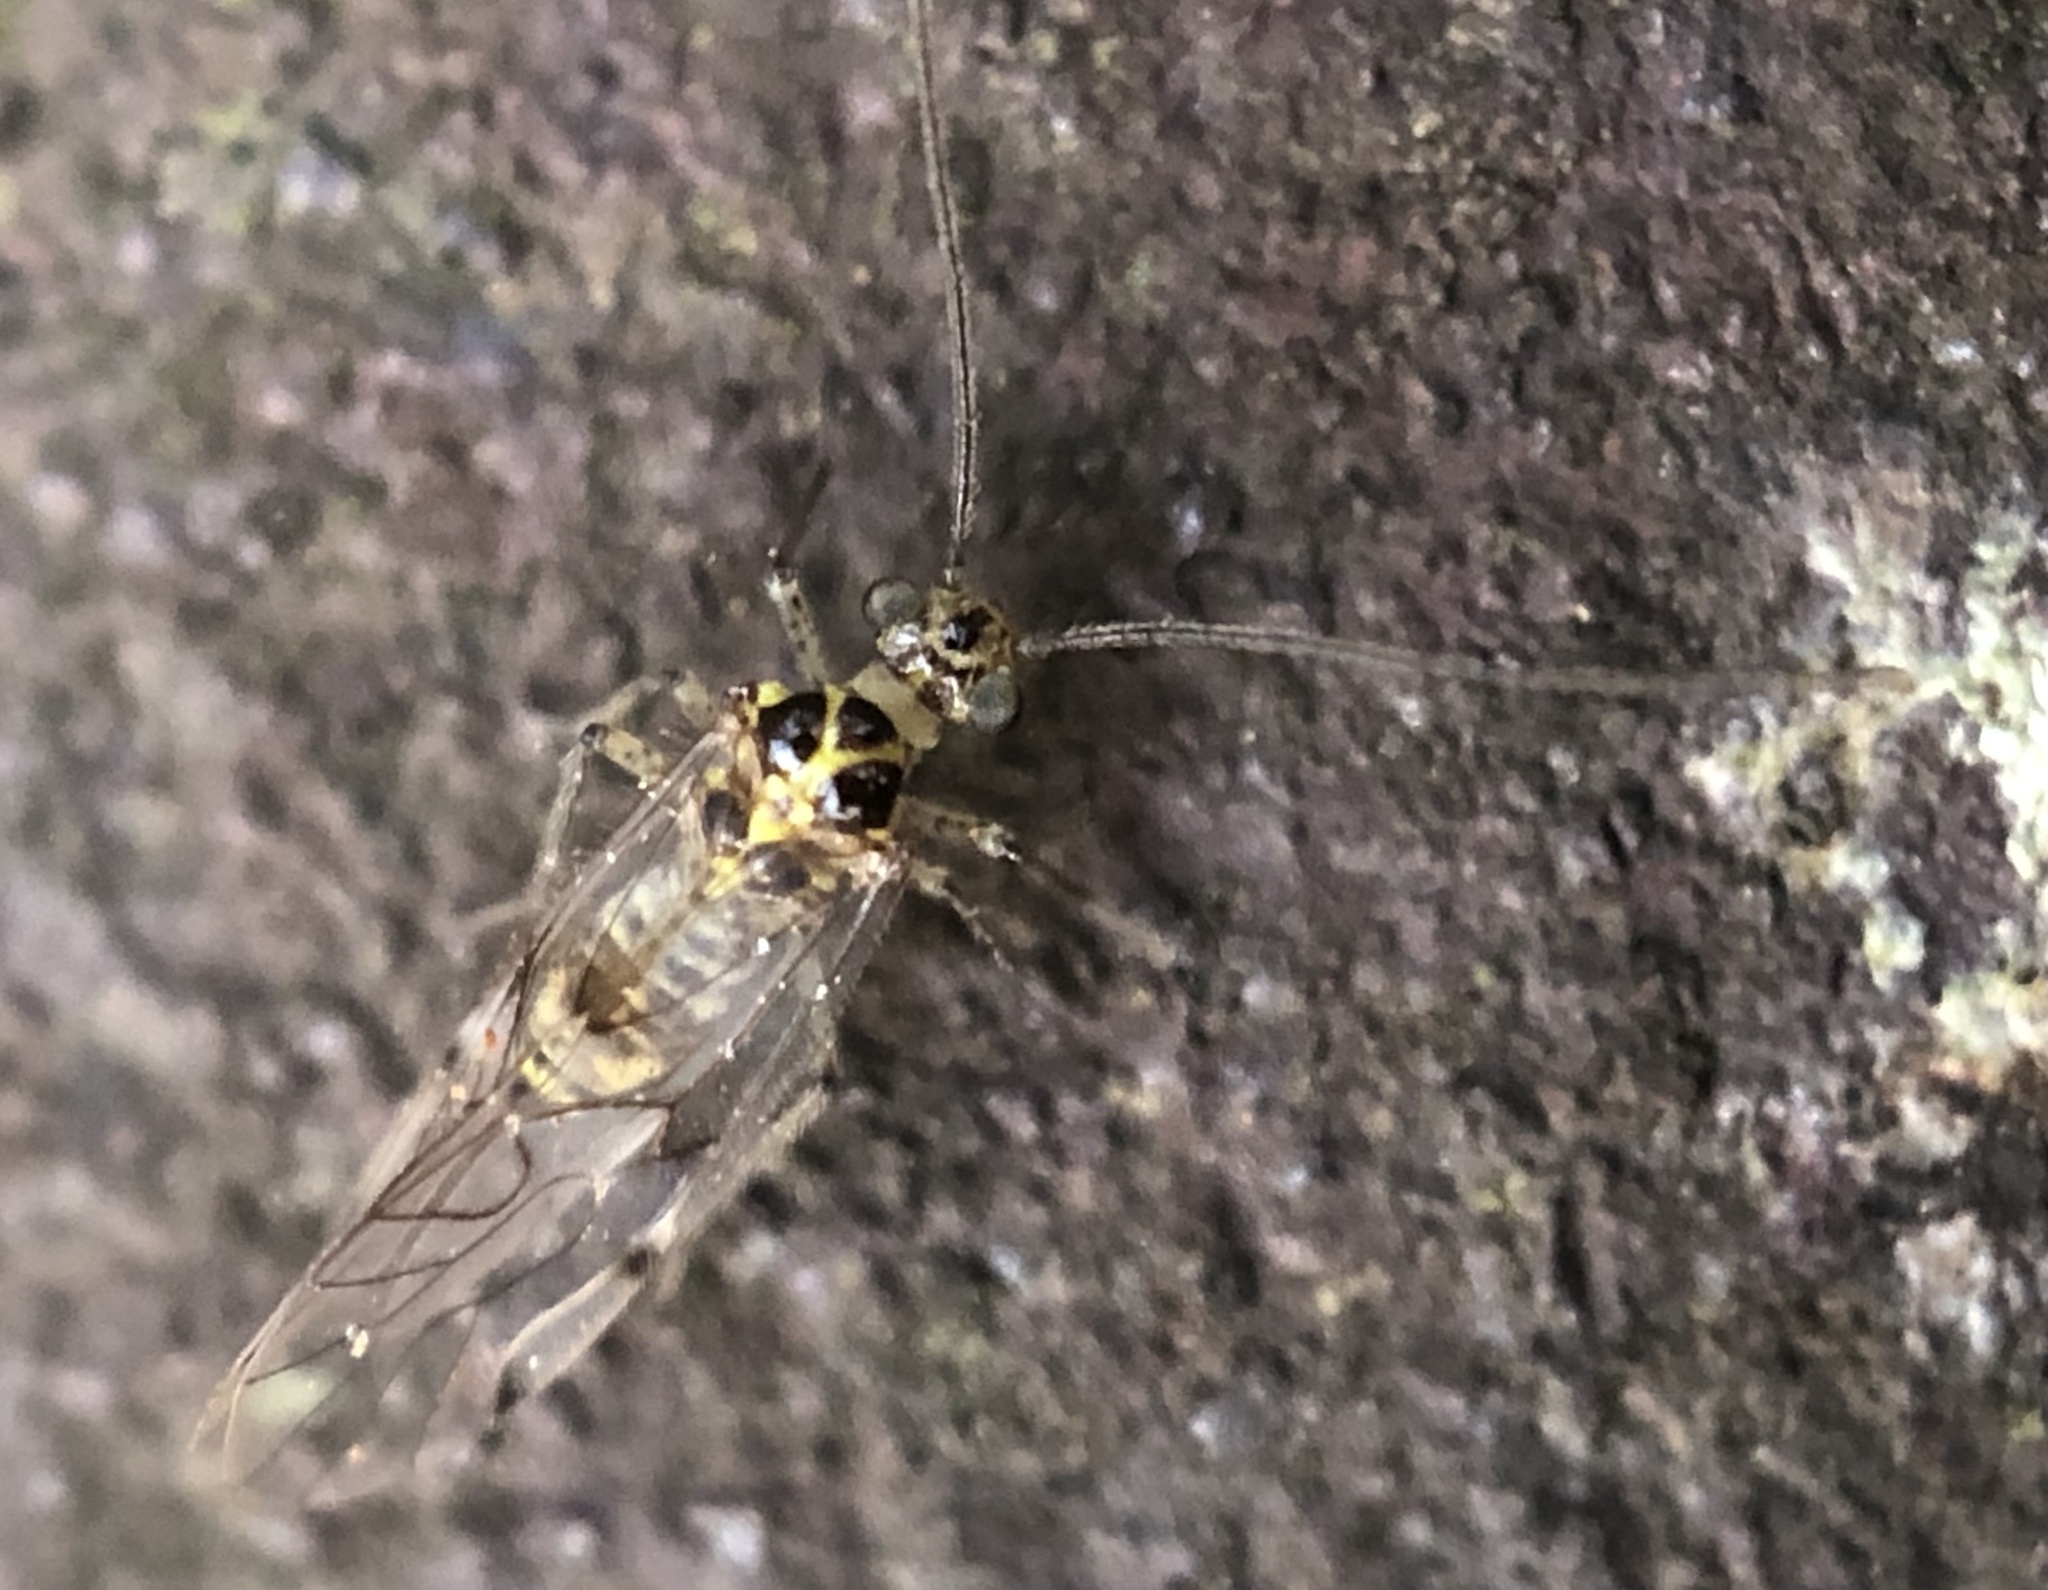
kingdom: Animalia
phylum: Arthropoda
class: Insecta
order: Psocodea
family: Dasydemellidae
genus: Teliapsocus
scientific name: Teliapsocus conterminus
